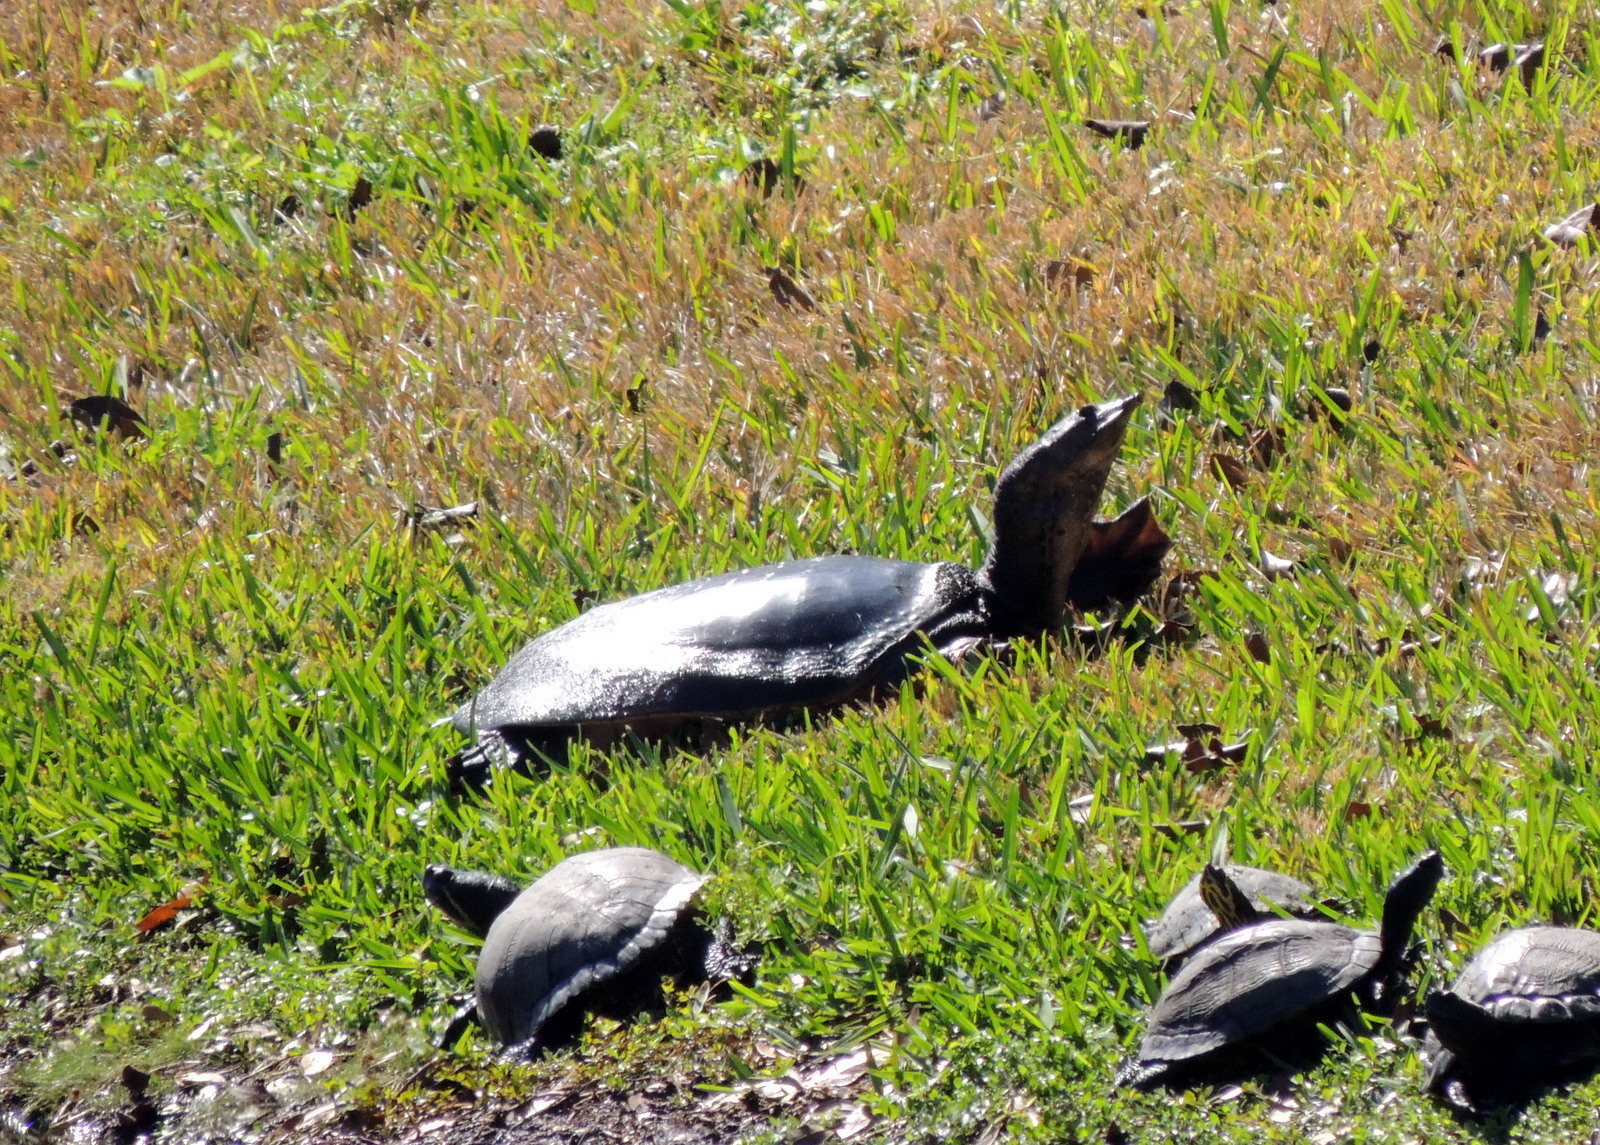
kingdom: Animalia
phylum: Chordata
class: Testudines
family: Trionychidae
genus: Apalone
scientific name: Apalone ferox
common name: Florida softshell turtle
